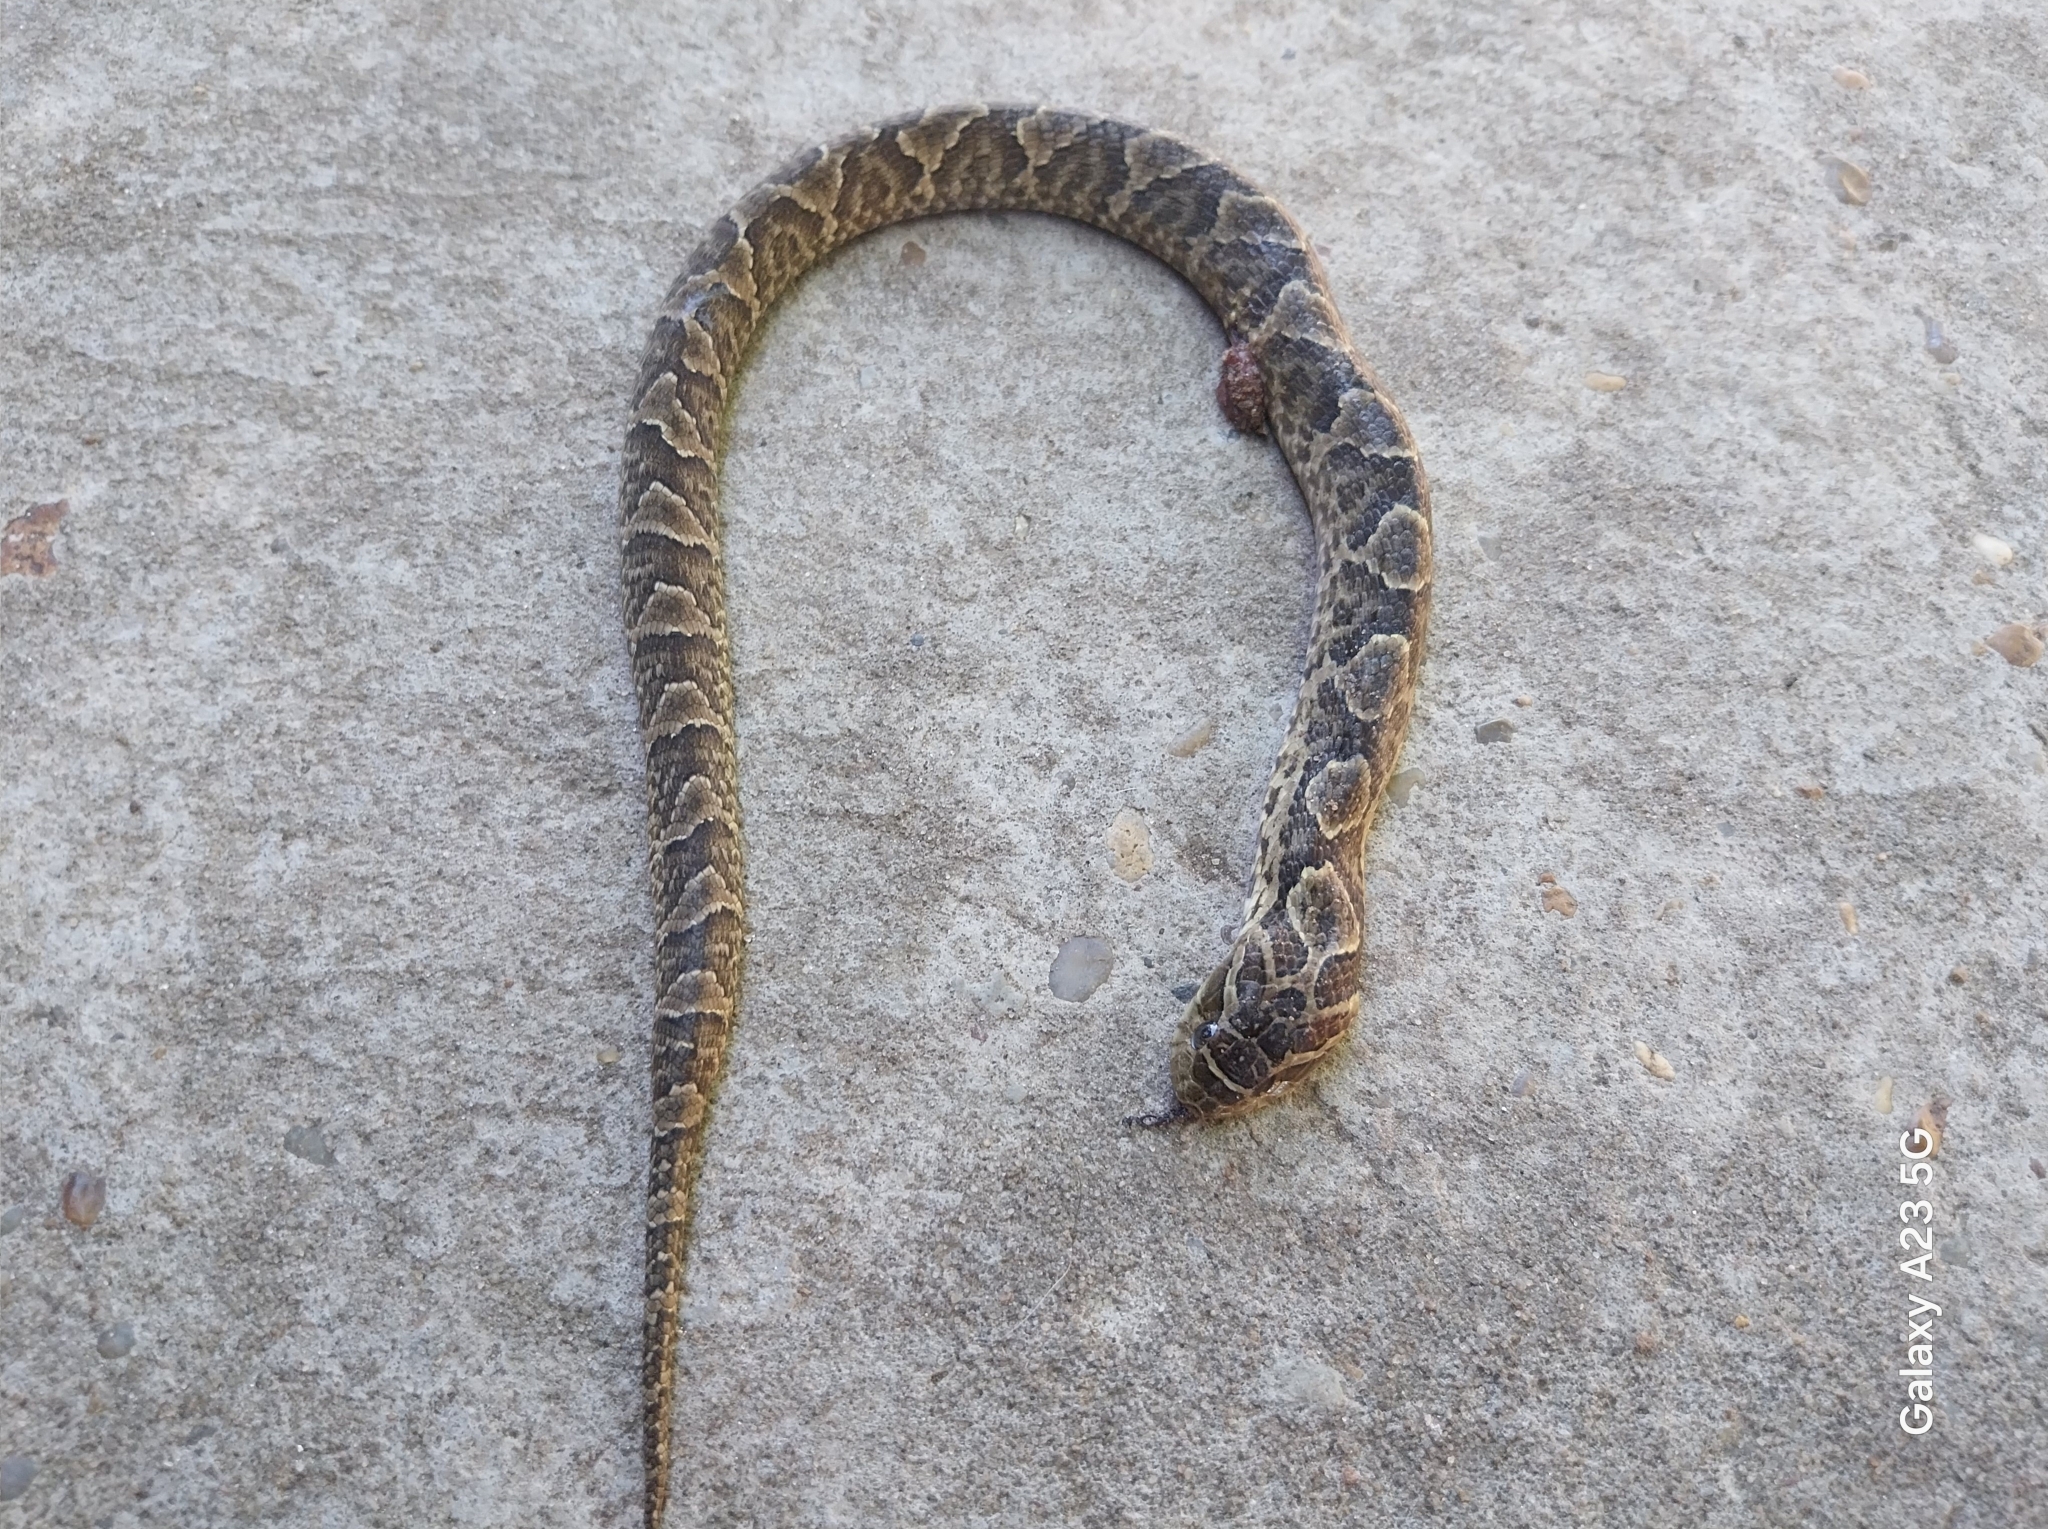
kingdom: Animalia
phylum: Chordata
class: Squamata
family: Colubridae
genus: Xenodon
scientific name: Xenodon merremii
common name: Wagler's snake
